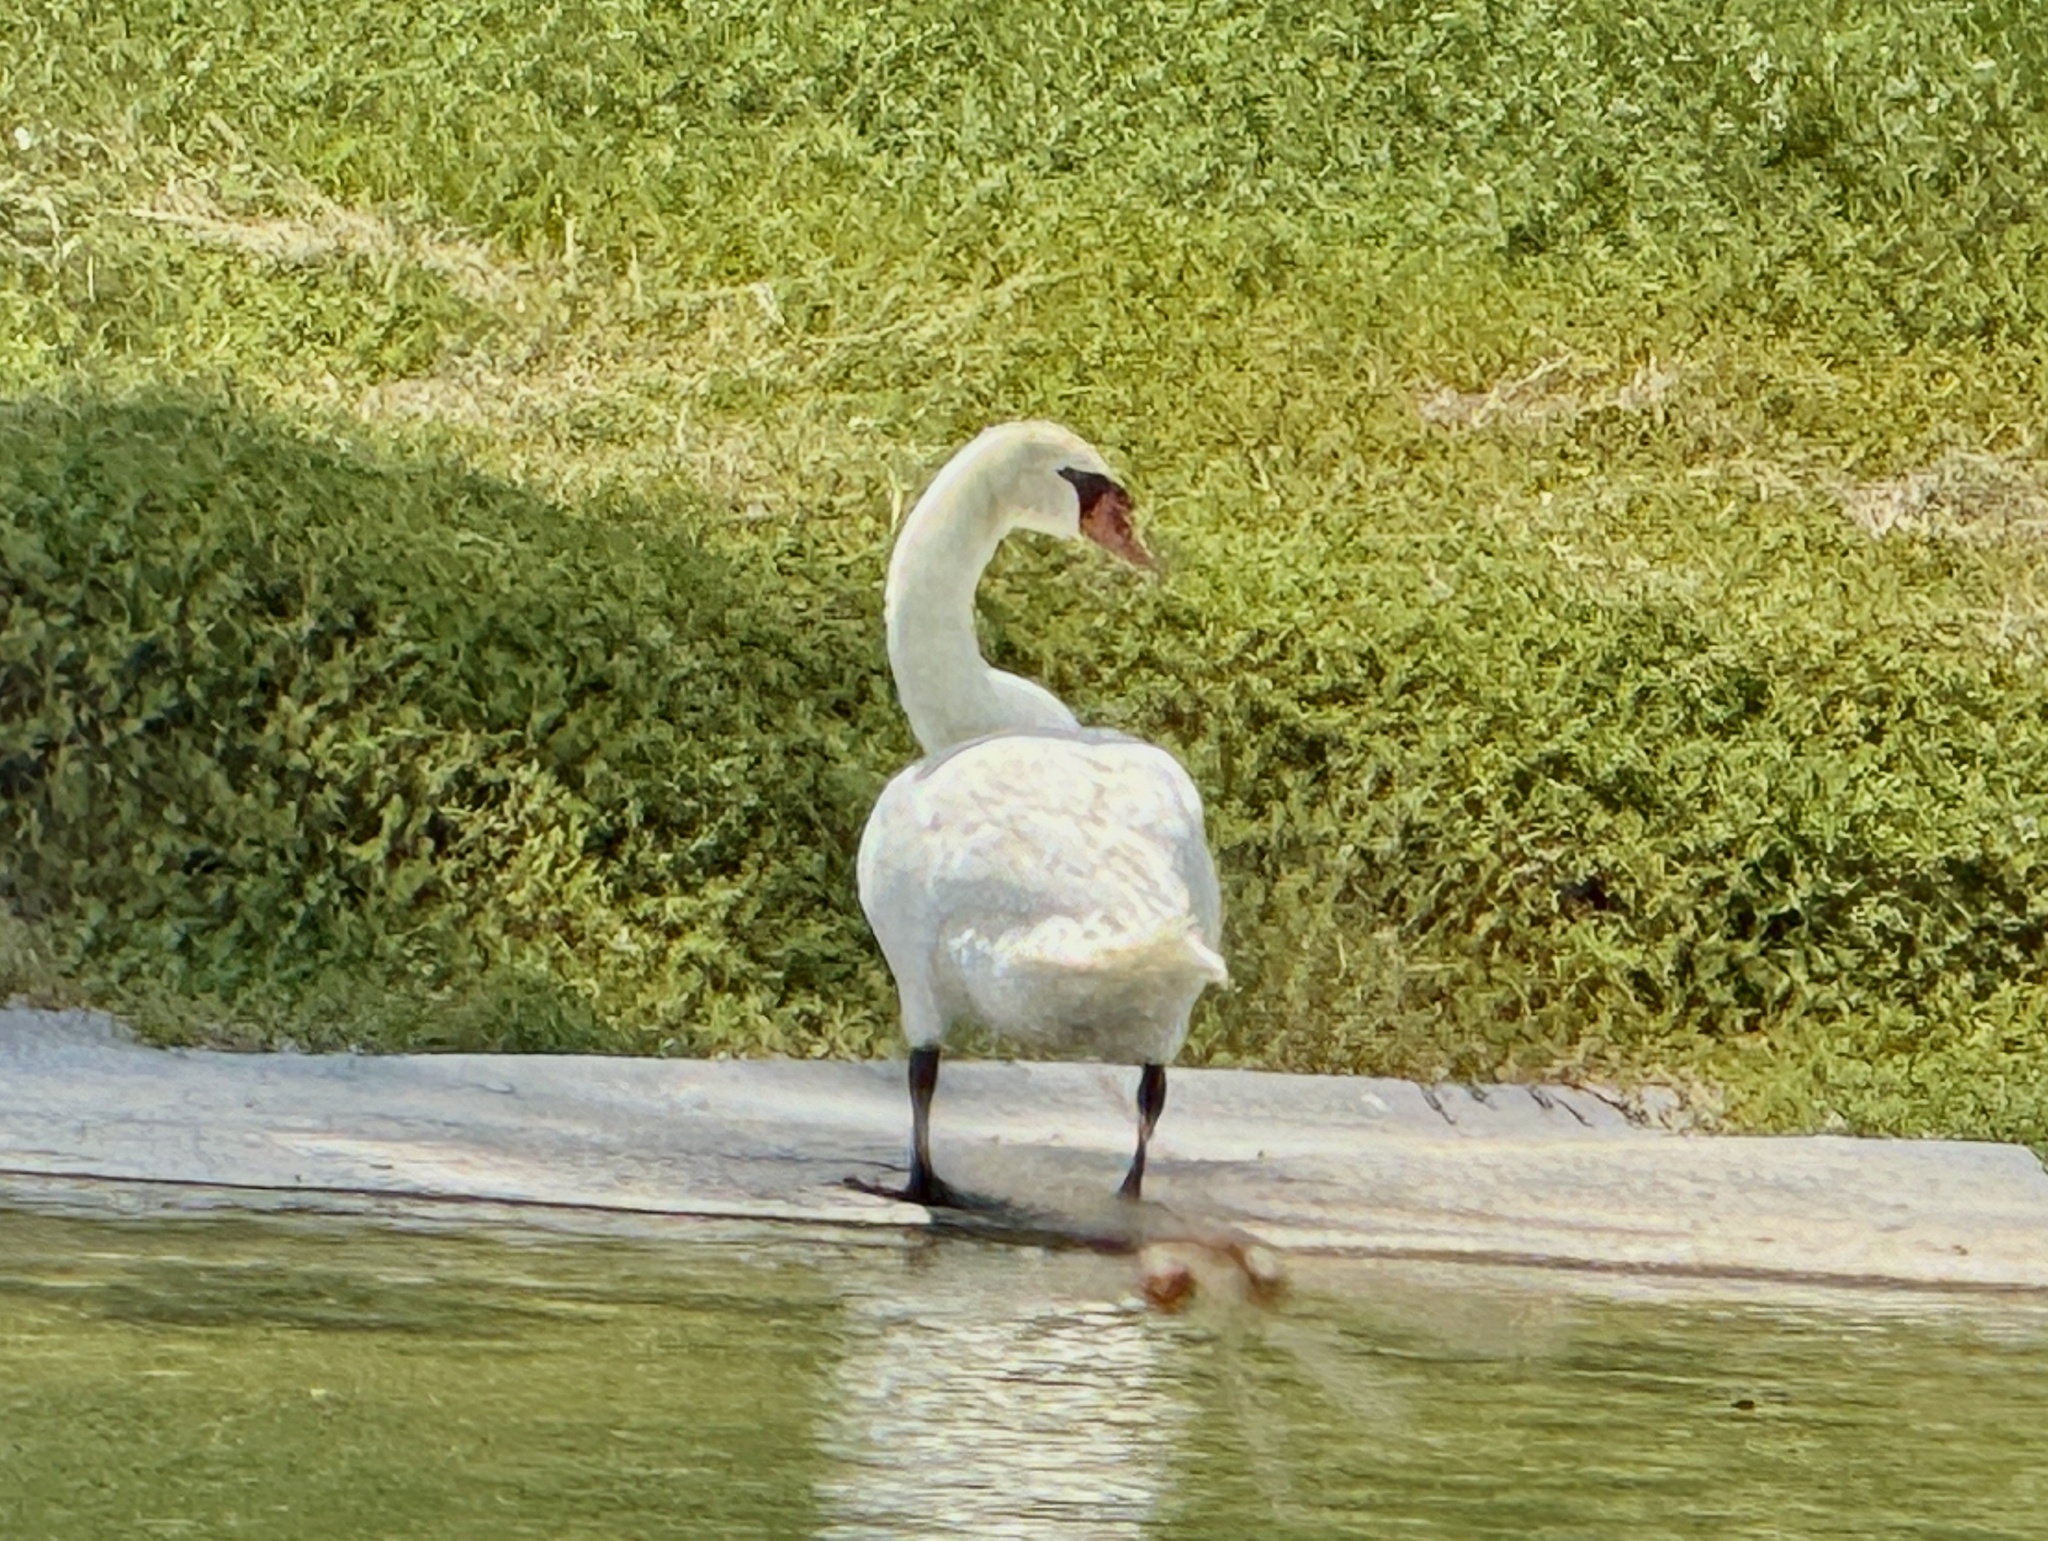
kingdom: Animalia
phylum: Chordata
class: Aves
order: Anseriformes
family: Anatidae
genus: Cygnus
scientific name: Cygnus olor
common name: Mute swan
